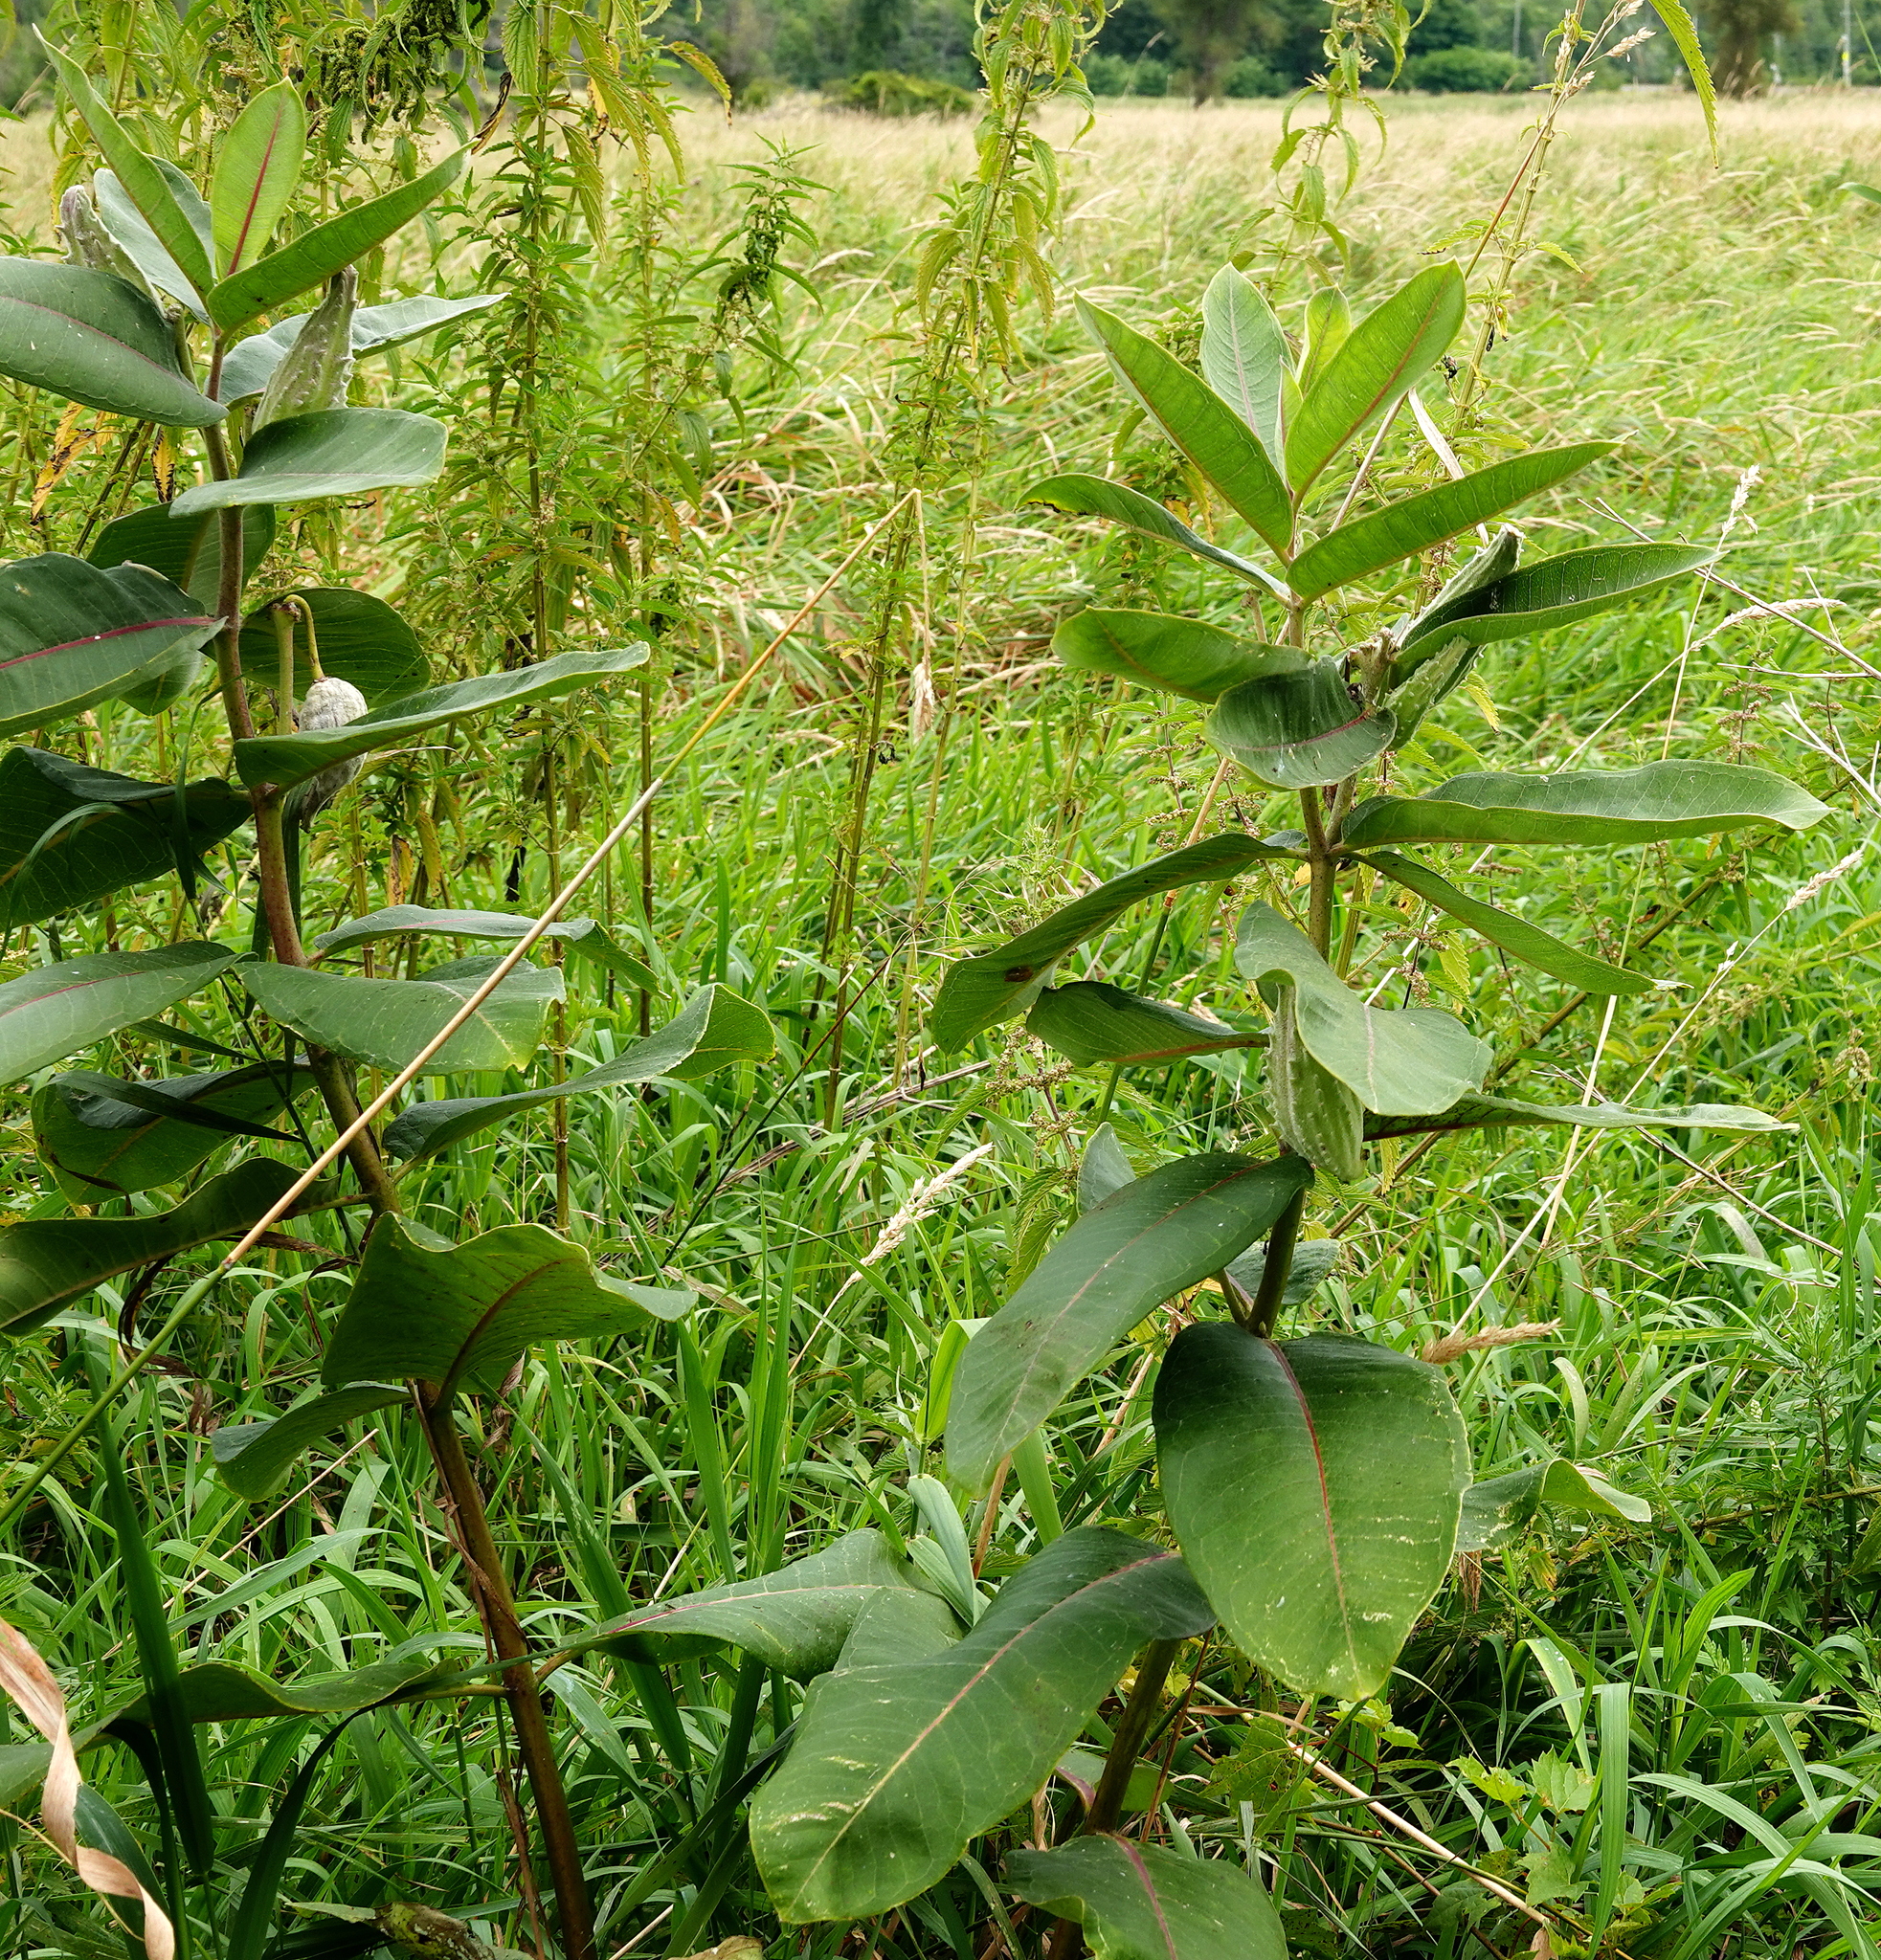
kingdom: Plantae
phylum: Tracheophyta
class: Magnoliopsida
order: Gentianales
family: Apocynaceae
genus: Asclepias
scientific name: Asclepias syriaca
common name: Common milkweed
